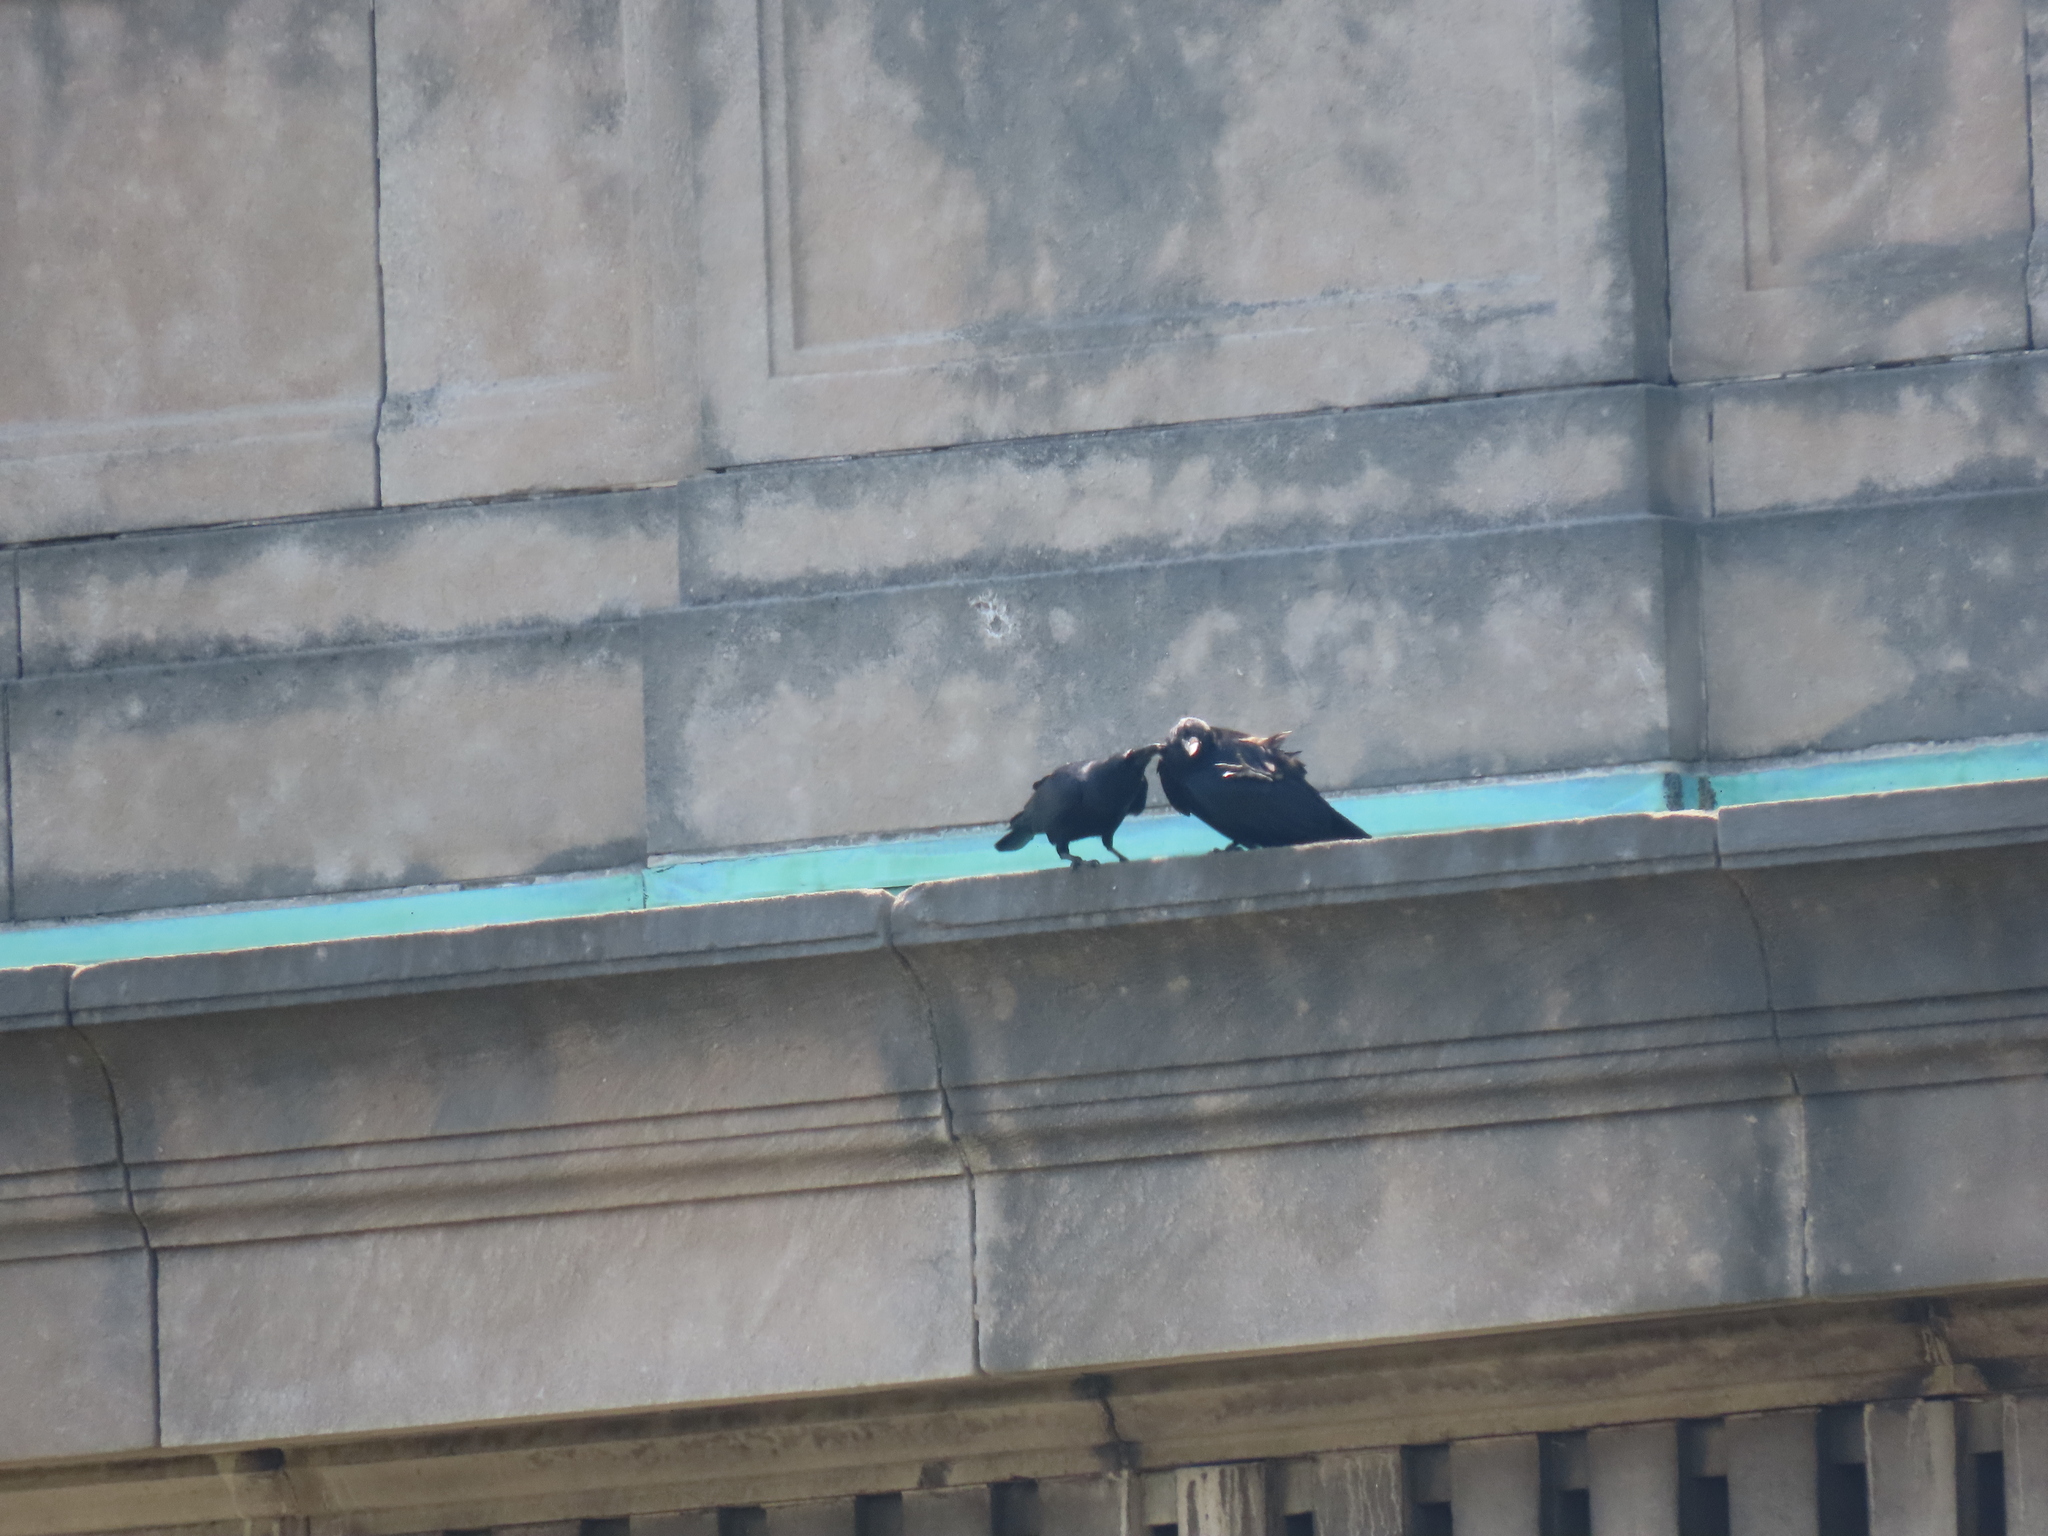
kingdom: Animalia
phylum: Chordata
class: Aves
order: Passeriformes
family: Corvidae
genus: Corvus
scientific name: Corvus corax
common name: Common raven
